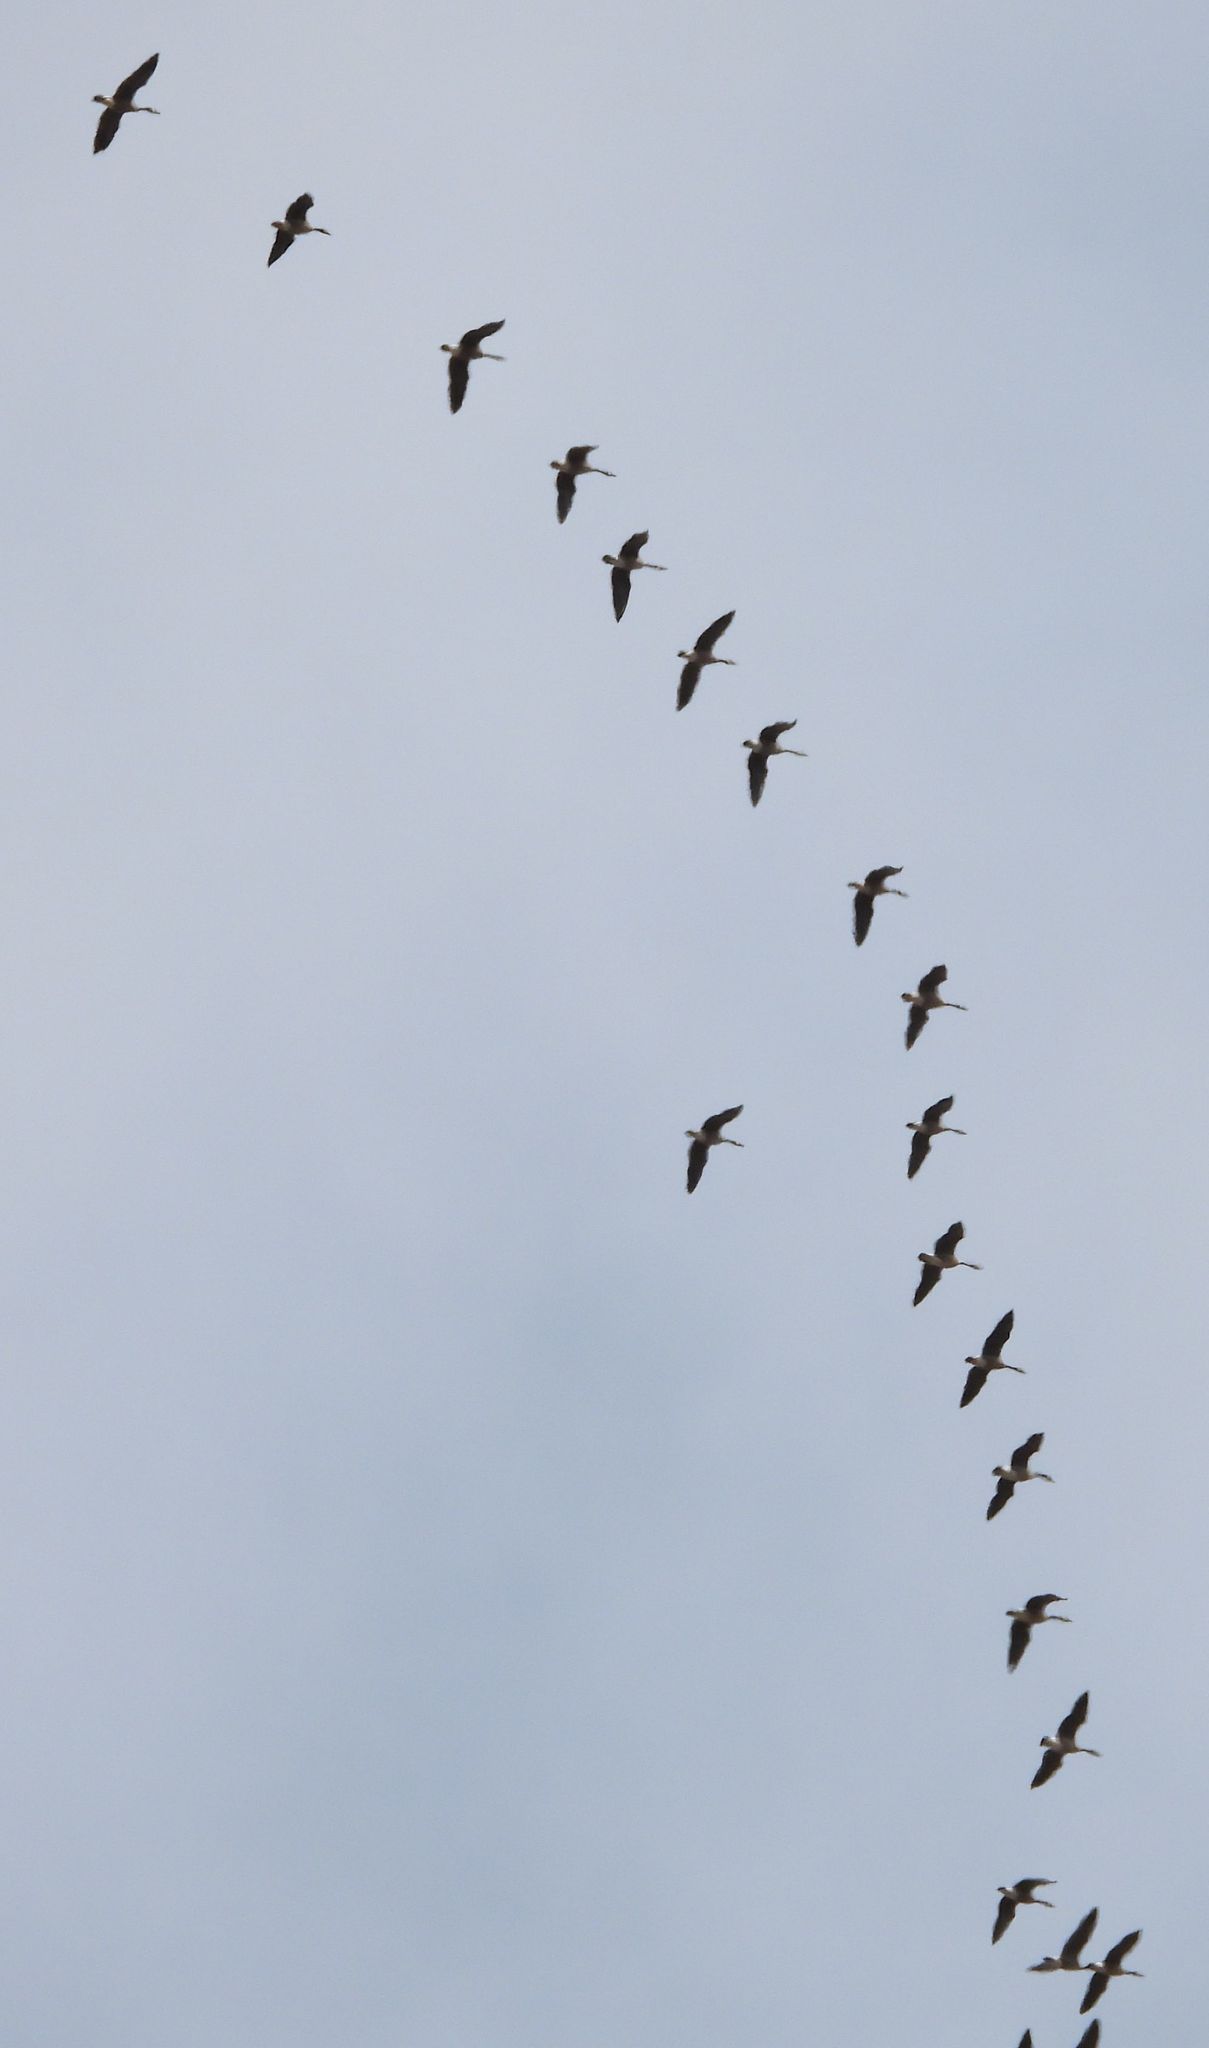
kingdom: Animalia
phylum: Chordata
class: Aves
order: Anseriformes
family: Anatidae
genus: Branta
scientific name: Branta canadensis
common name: Canada goose
